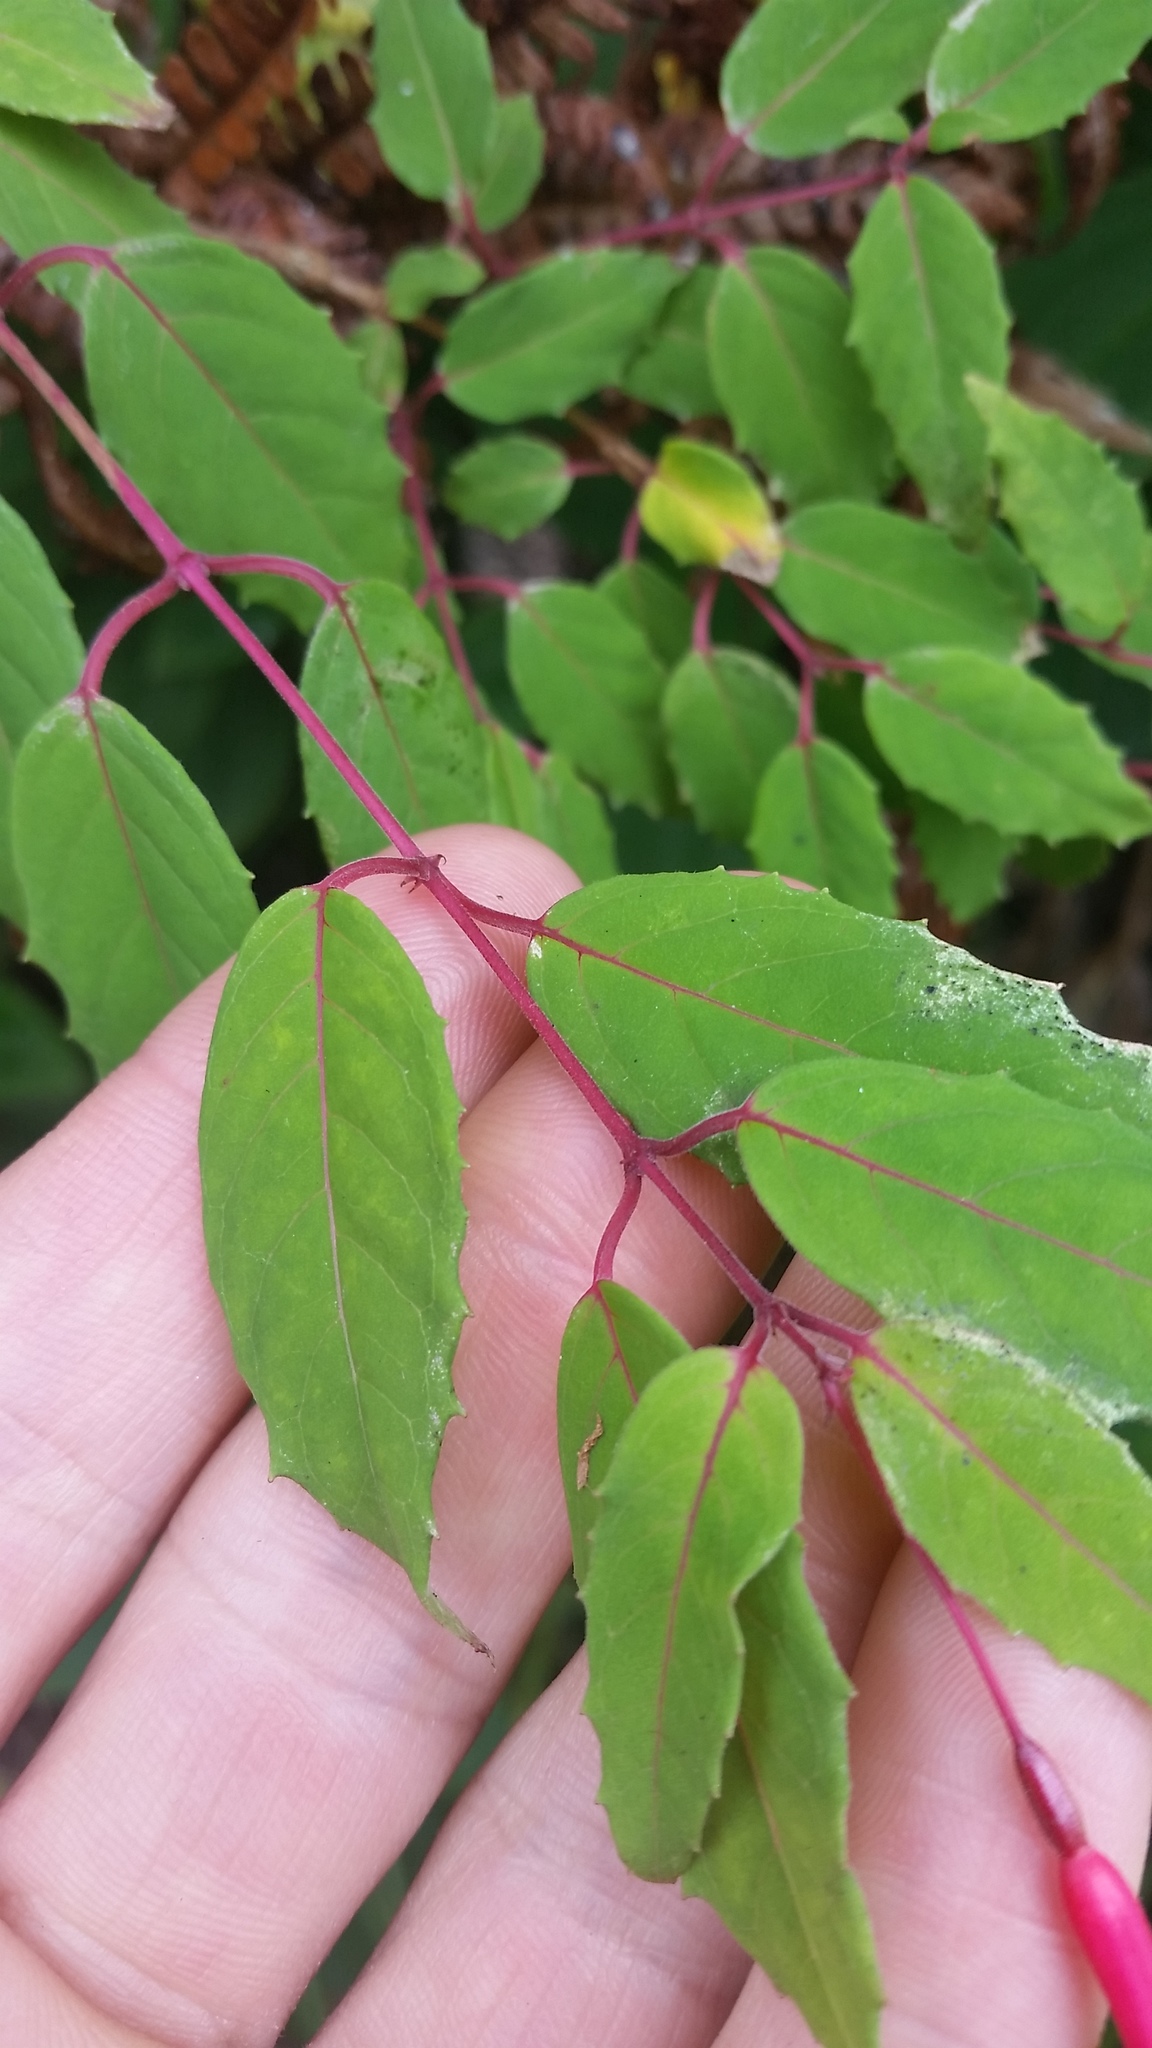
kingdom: Plantae
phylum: Tracheophyta
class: Magnoliopsida
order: Myrtales
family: Onagraceae
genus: Fuchsia
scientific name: Fuchsia magellanica
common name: Hardy fuchsia
